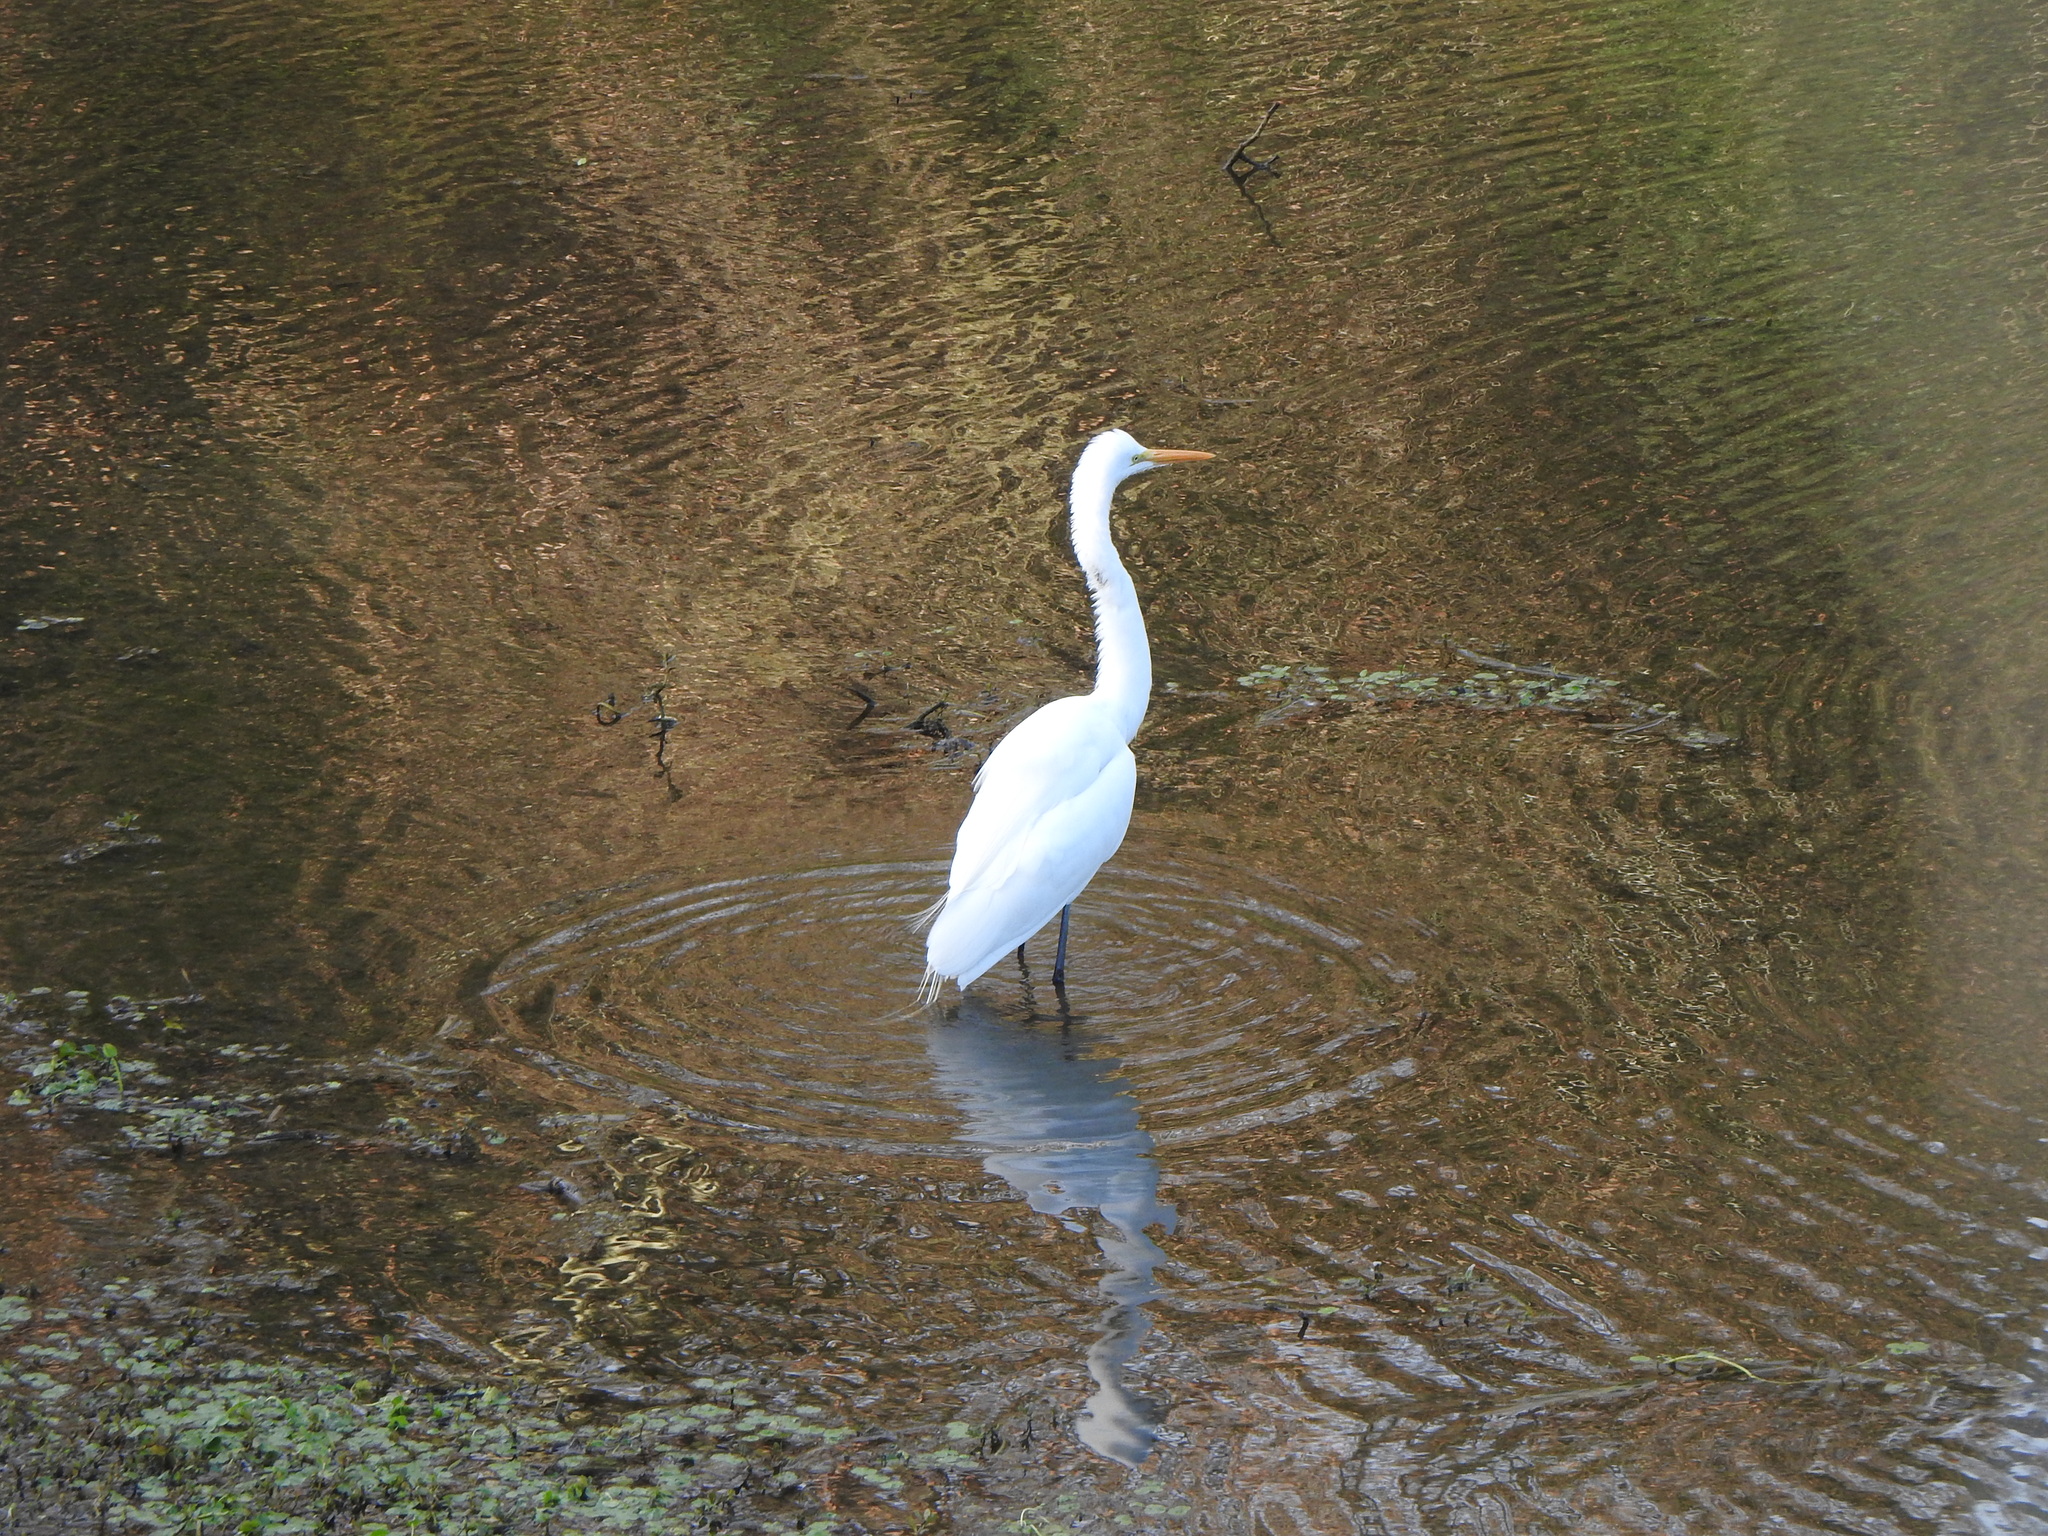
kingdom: Animalia
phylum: Chordata
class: Aves
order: Pelecaniformes
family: Ardeidae
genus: Ardea
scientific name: Ardea alba
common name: Great egret
